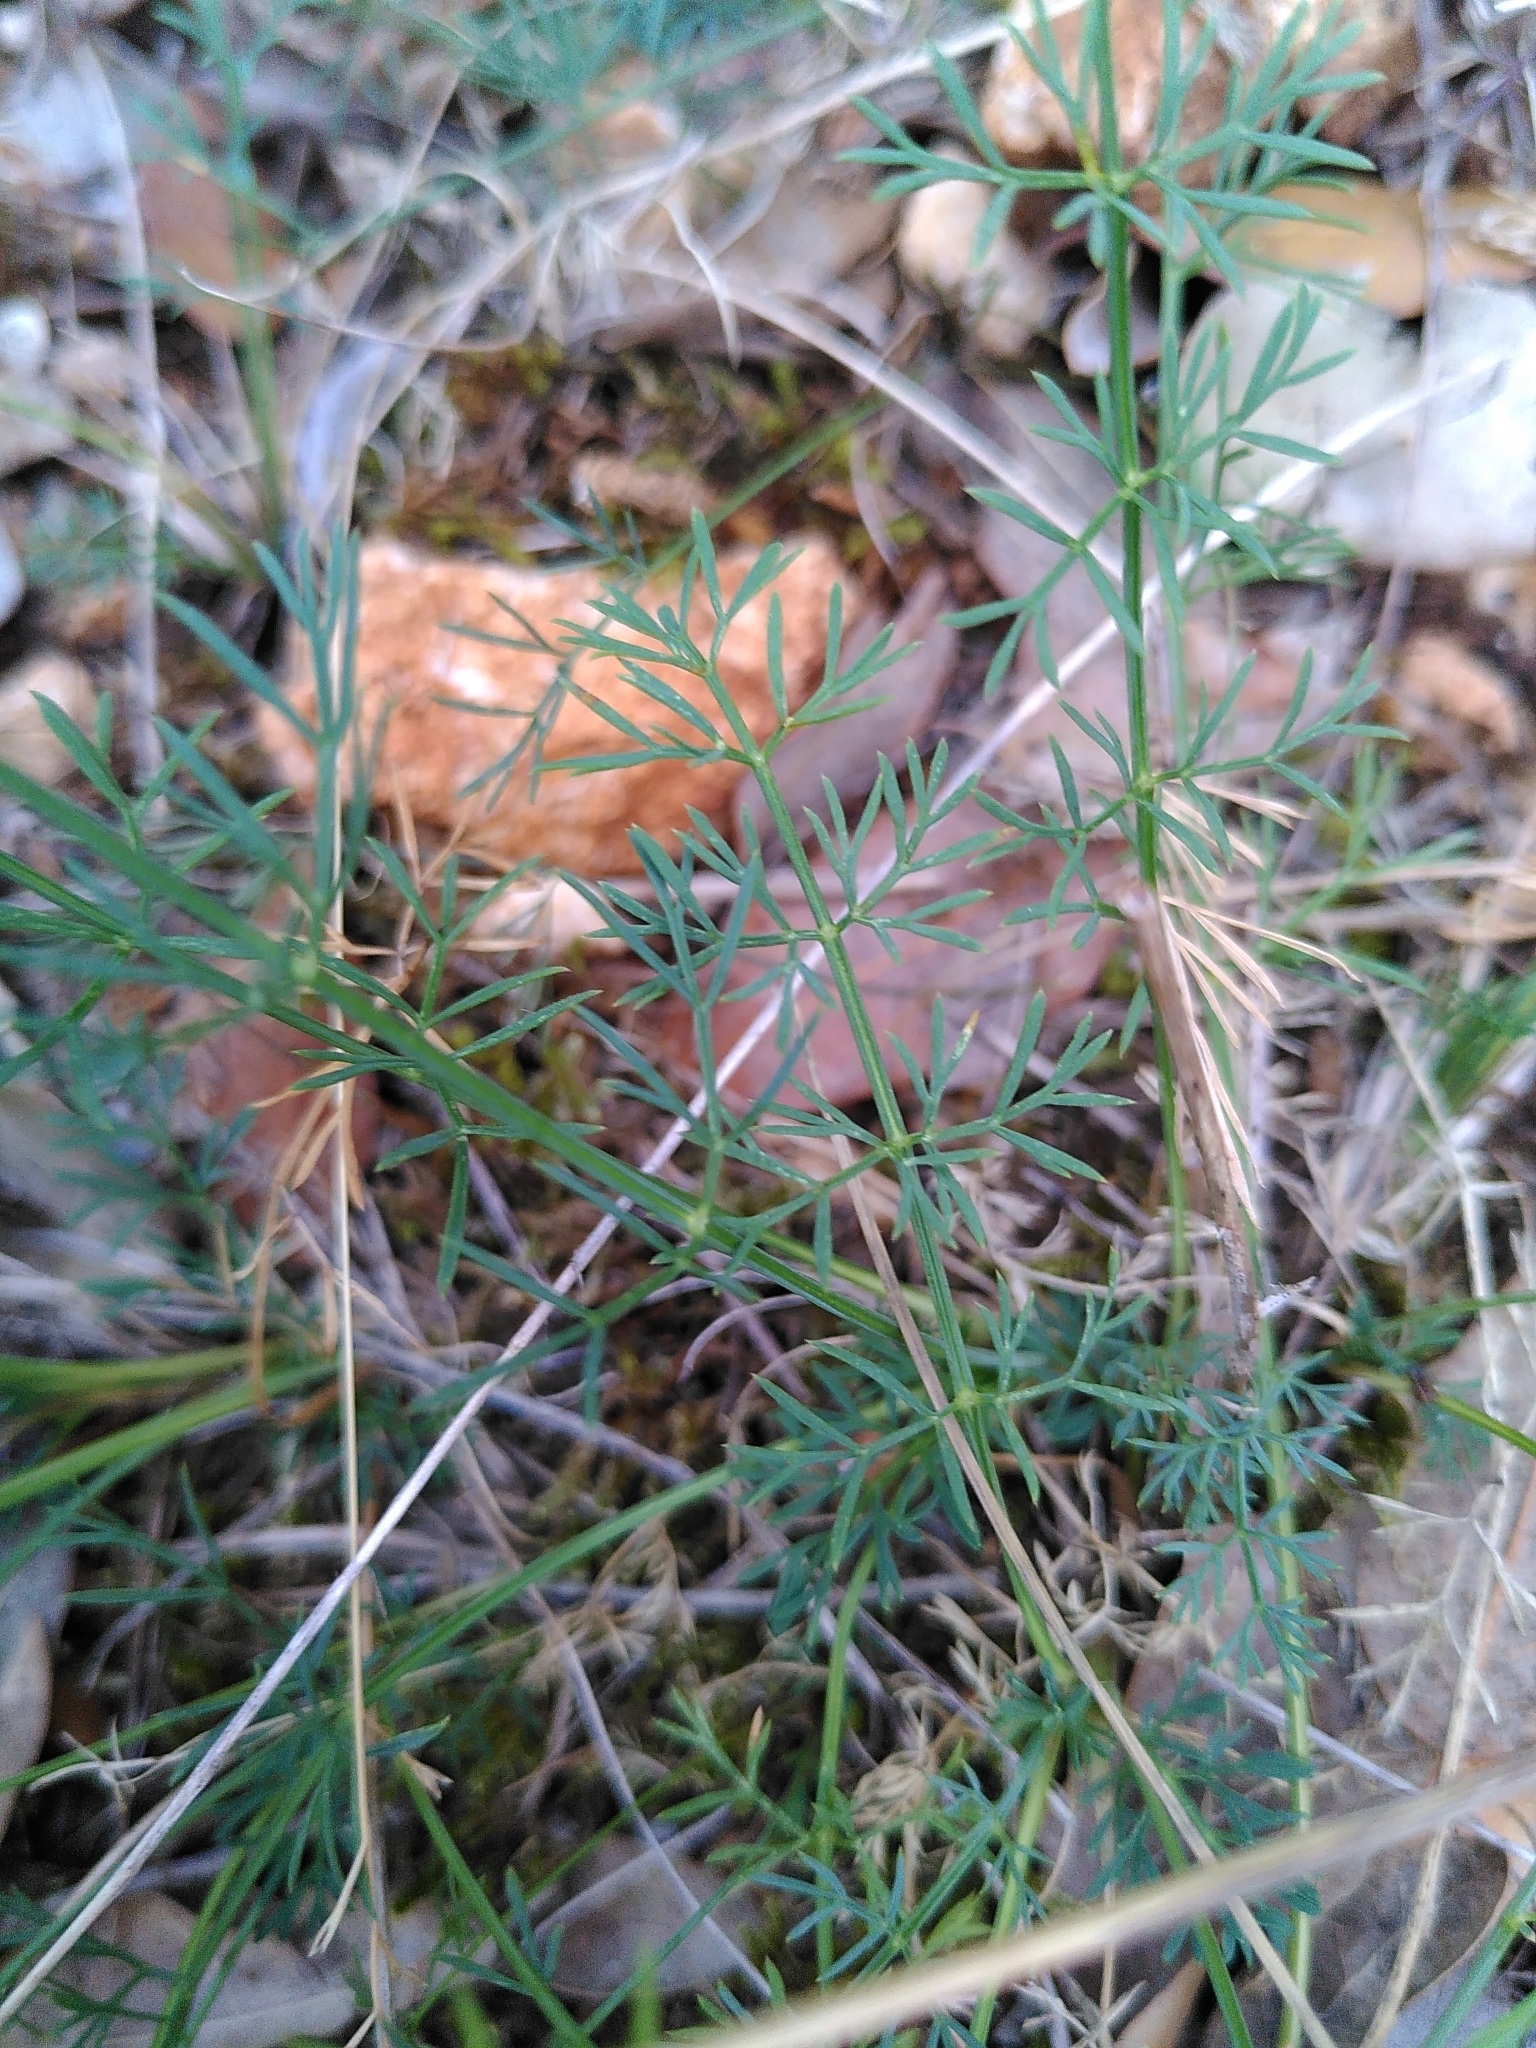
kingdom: Plantae
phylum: Tracheophyta
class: Magnoliopsida
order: Apiales
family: Apiaceae
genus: Seseli
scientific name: Seseli montanum
